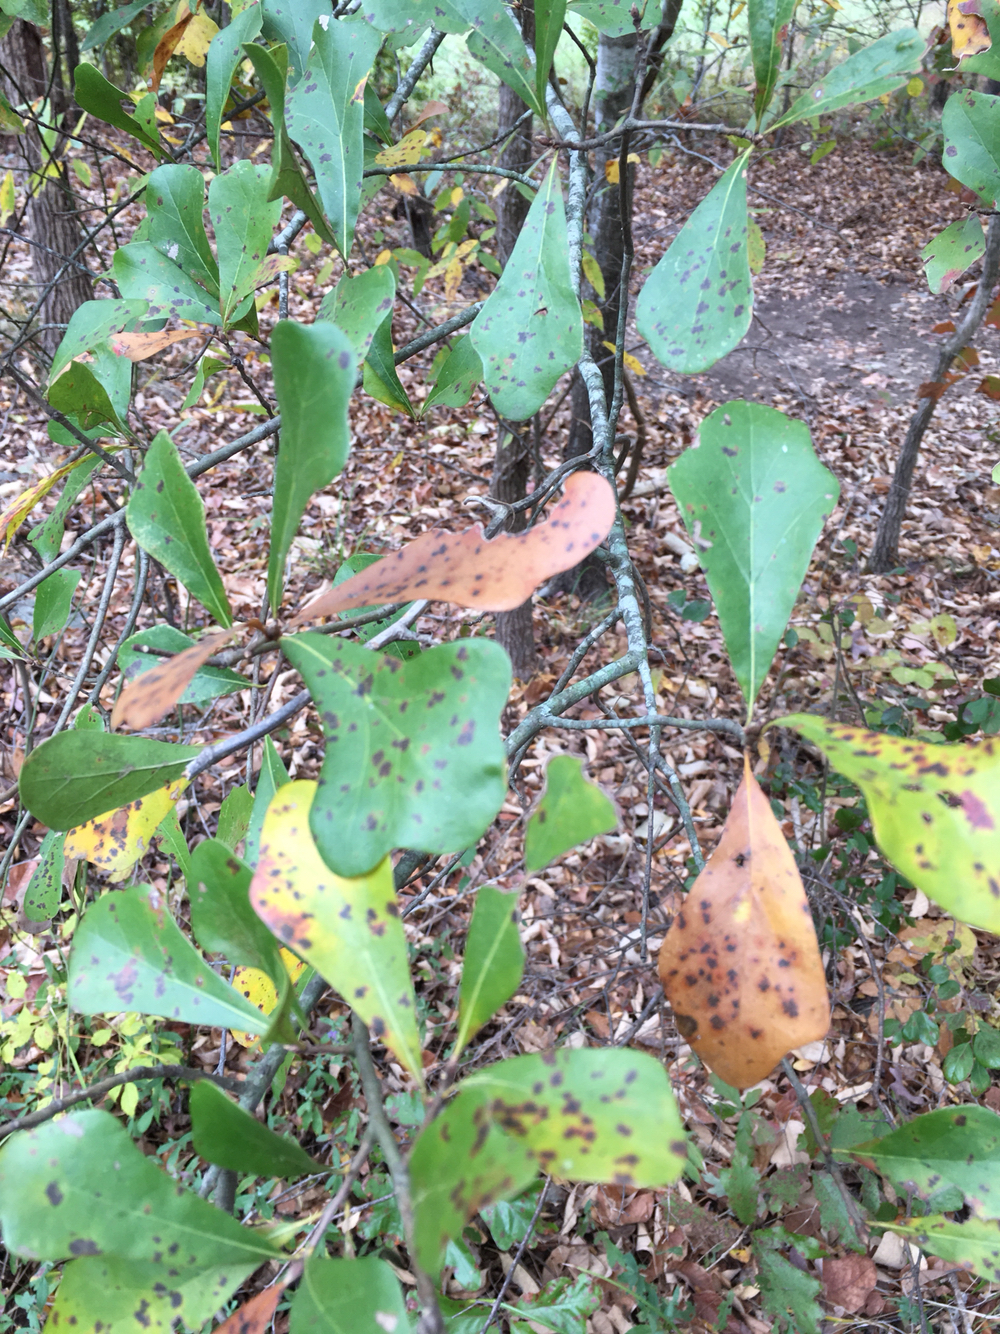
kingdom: Plantae
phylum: Tracheophyta
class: Magnoliopsida
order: Fagales
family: Fagaceae
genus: Quercus
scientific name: Quercus nigra
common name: Water oak
